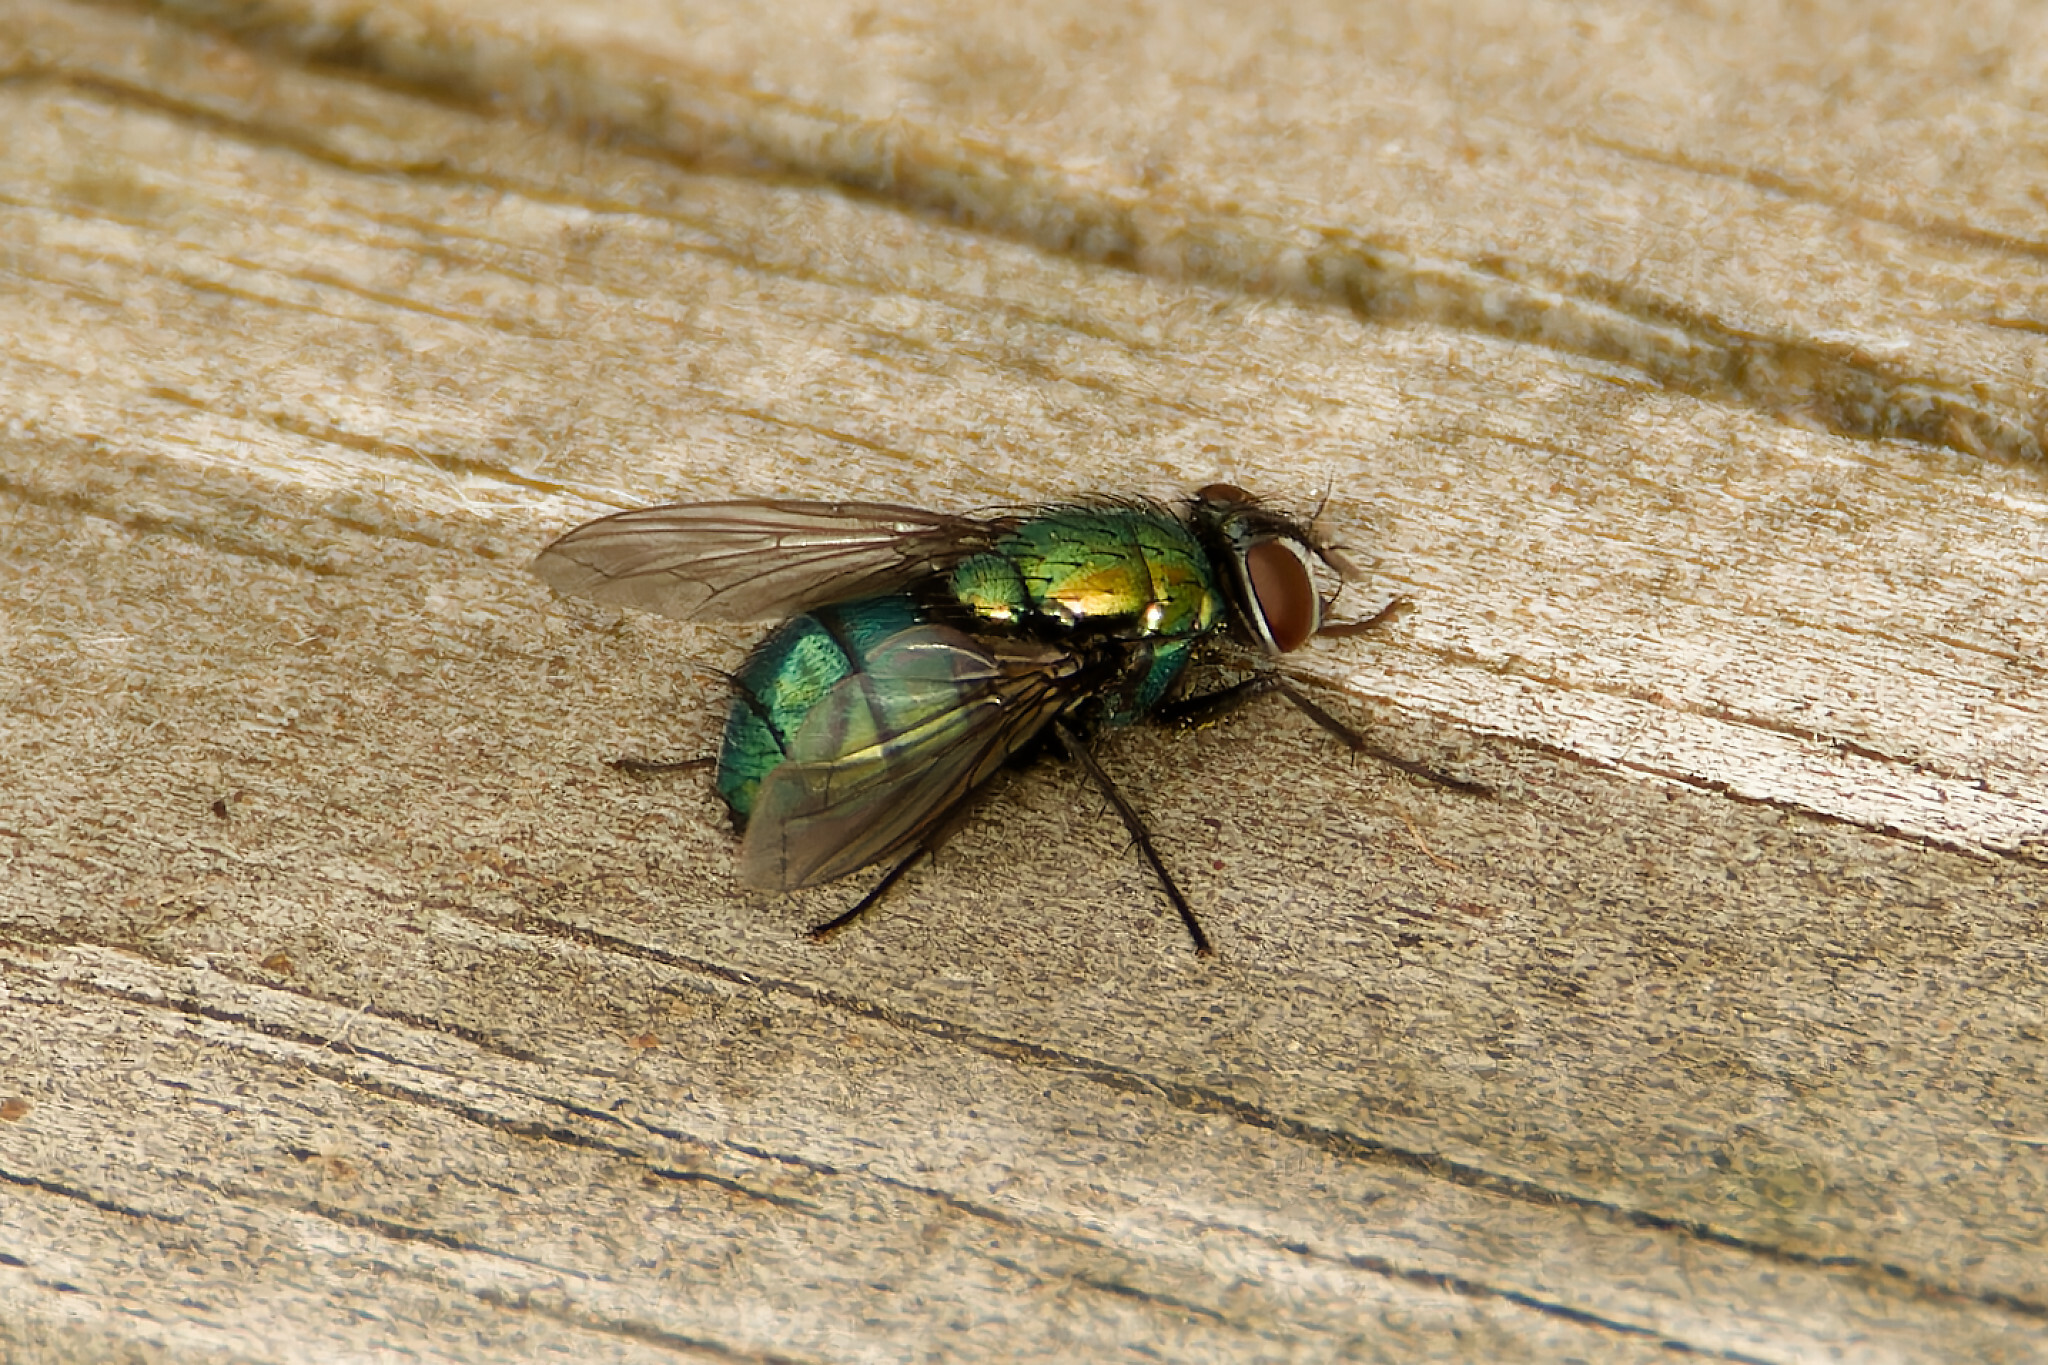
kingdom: Animalia
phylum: Arthropoda
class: Insecta
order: Diptera
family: Calliphoridae
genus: Lucilia
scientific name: Lucilia silvarum
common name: Marsh greenbottle
